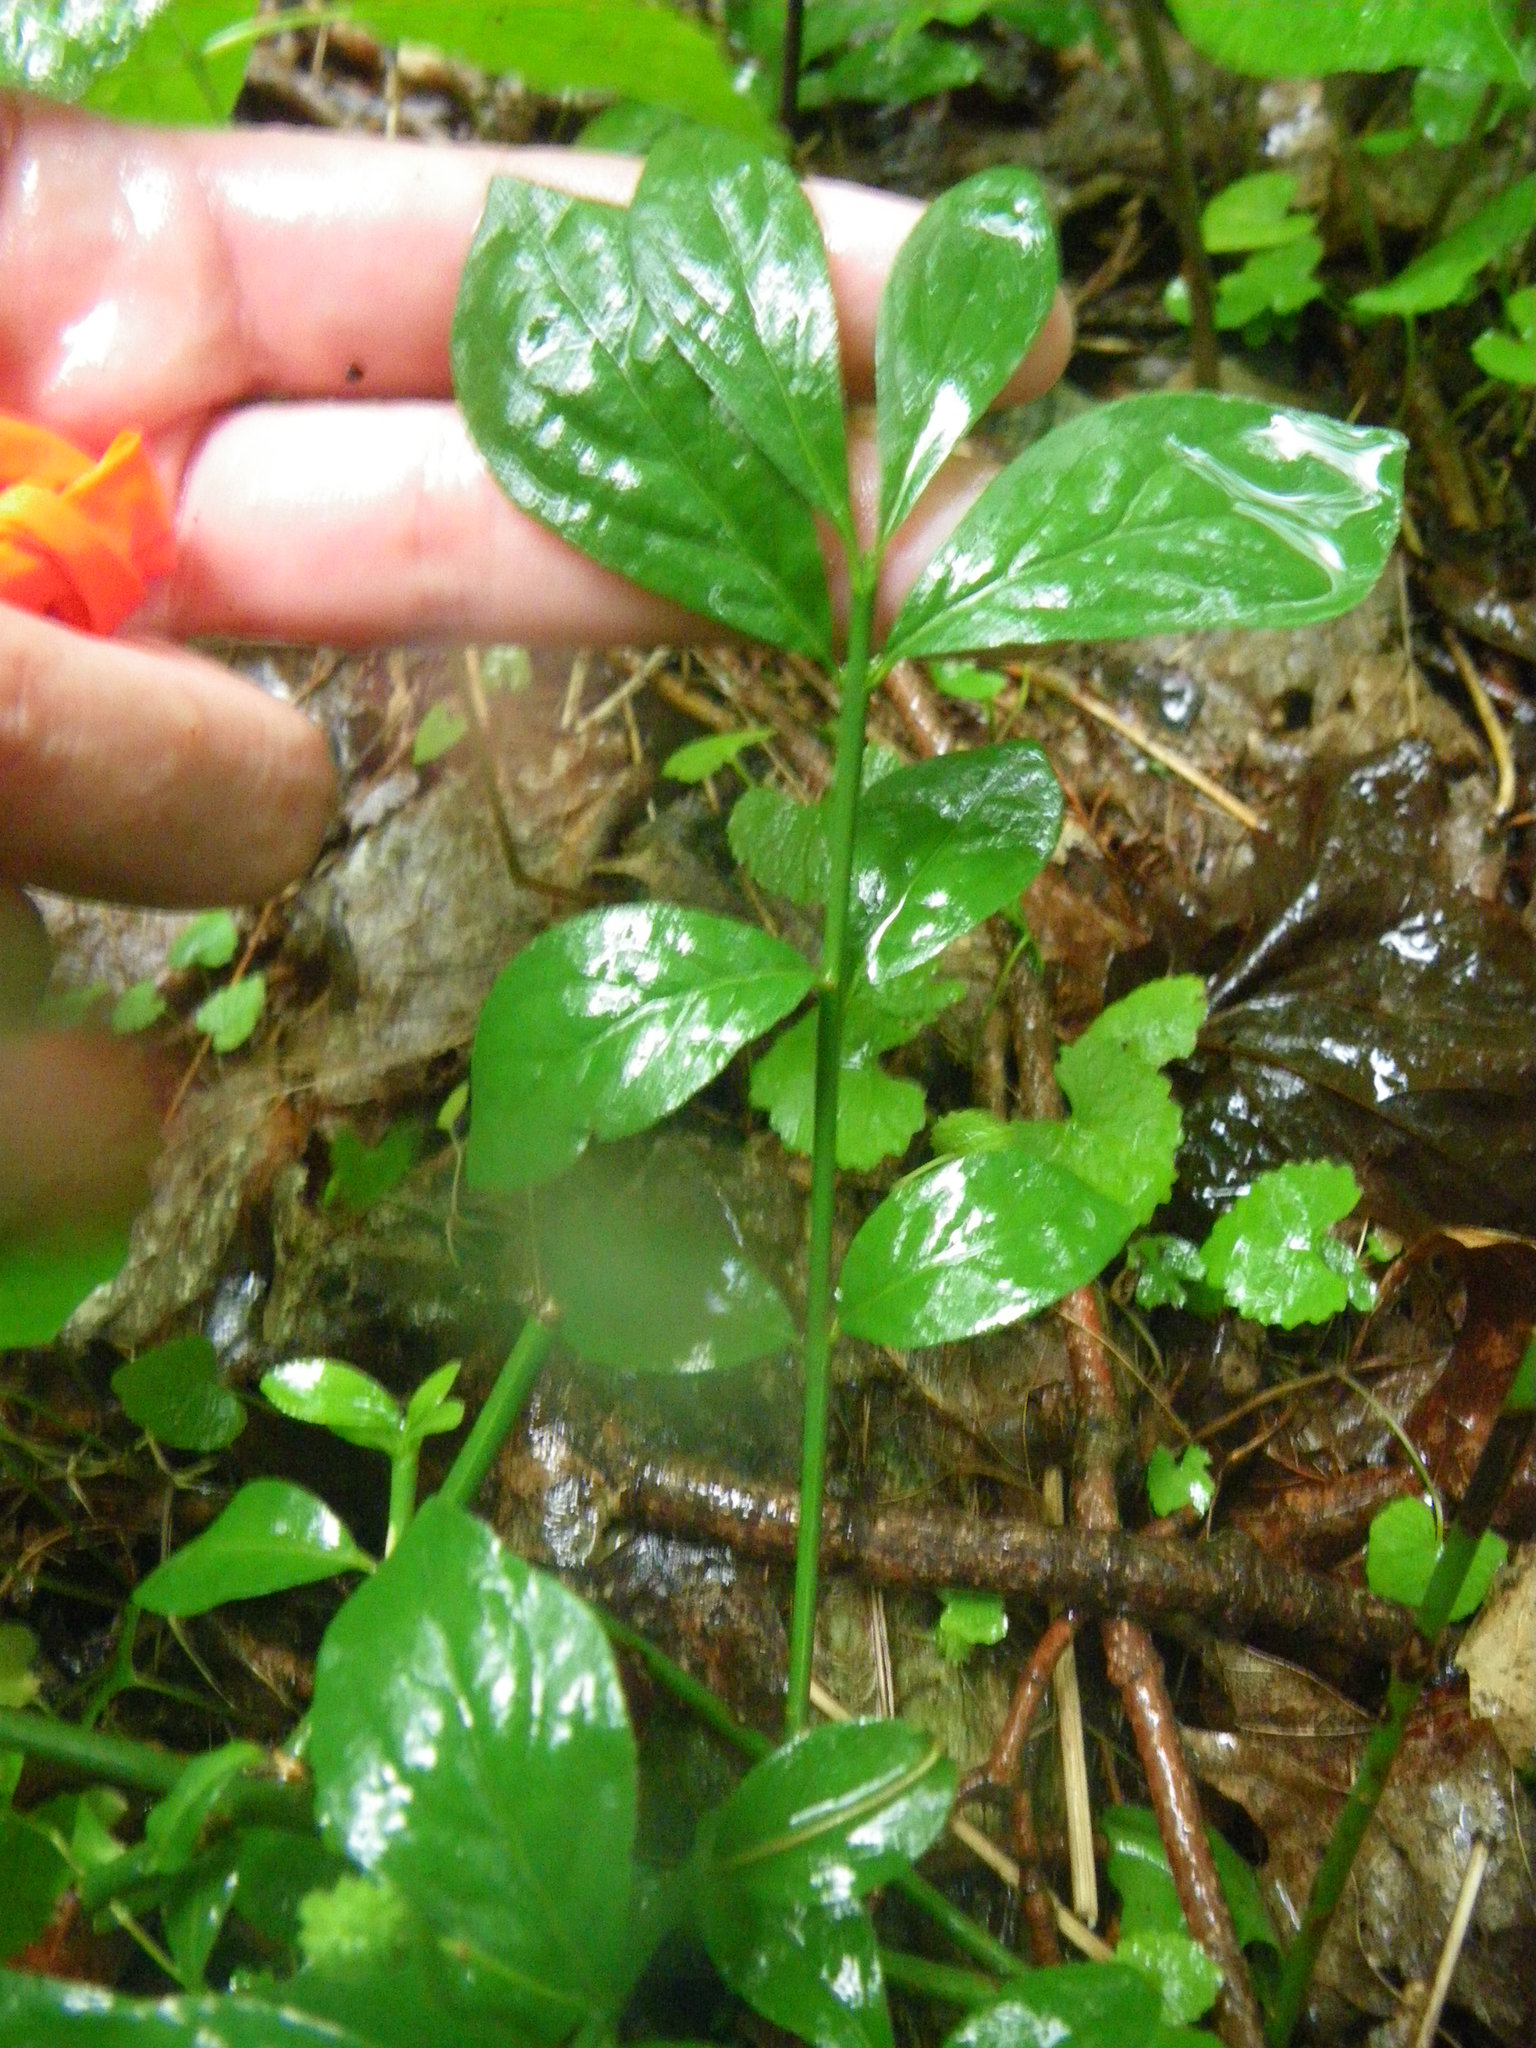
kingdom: Plantae
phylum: Tracheophyta
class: Magnoliopsida
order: Celastrales
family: Celastraceae
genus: Euonymus
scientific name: Euonymus obovatus
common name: Running strawberry-bush
